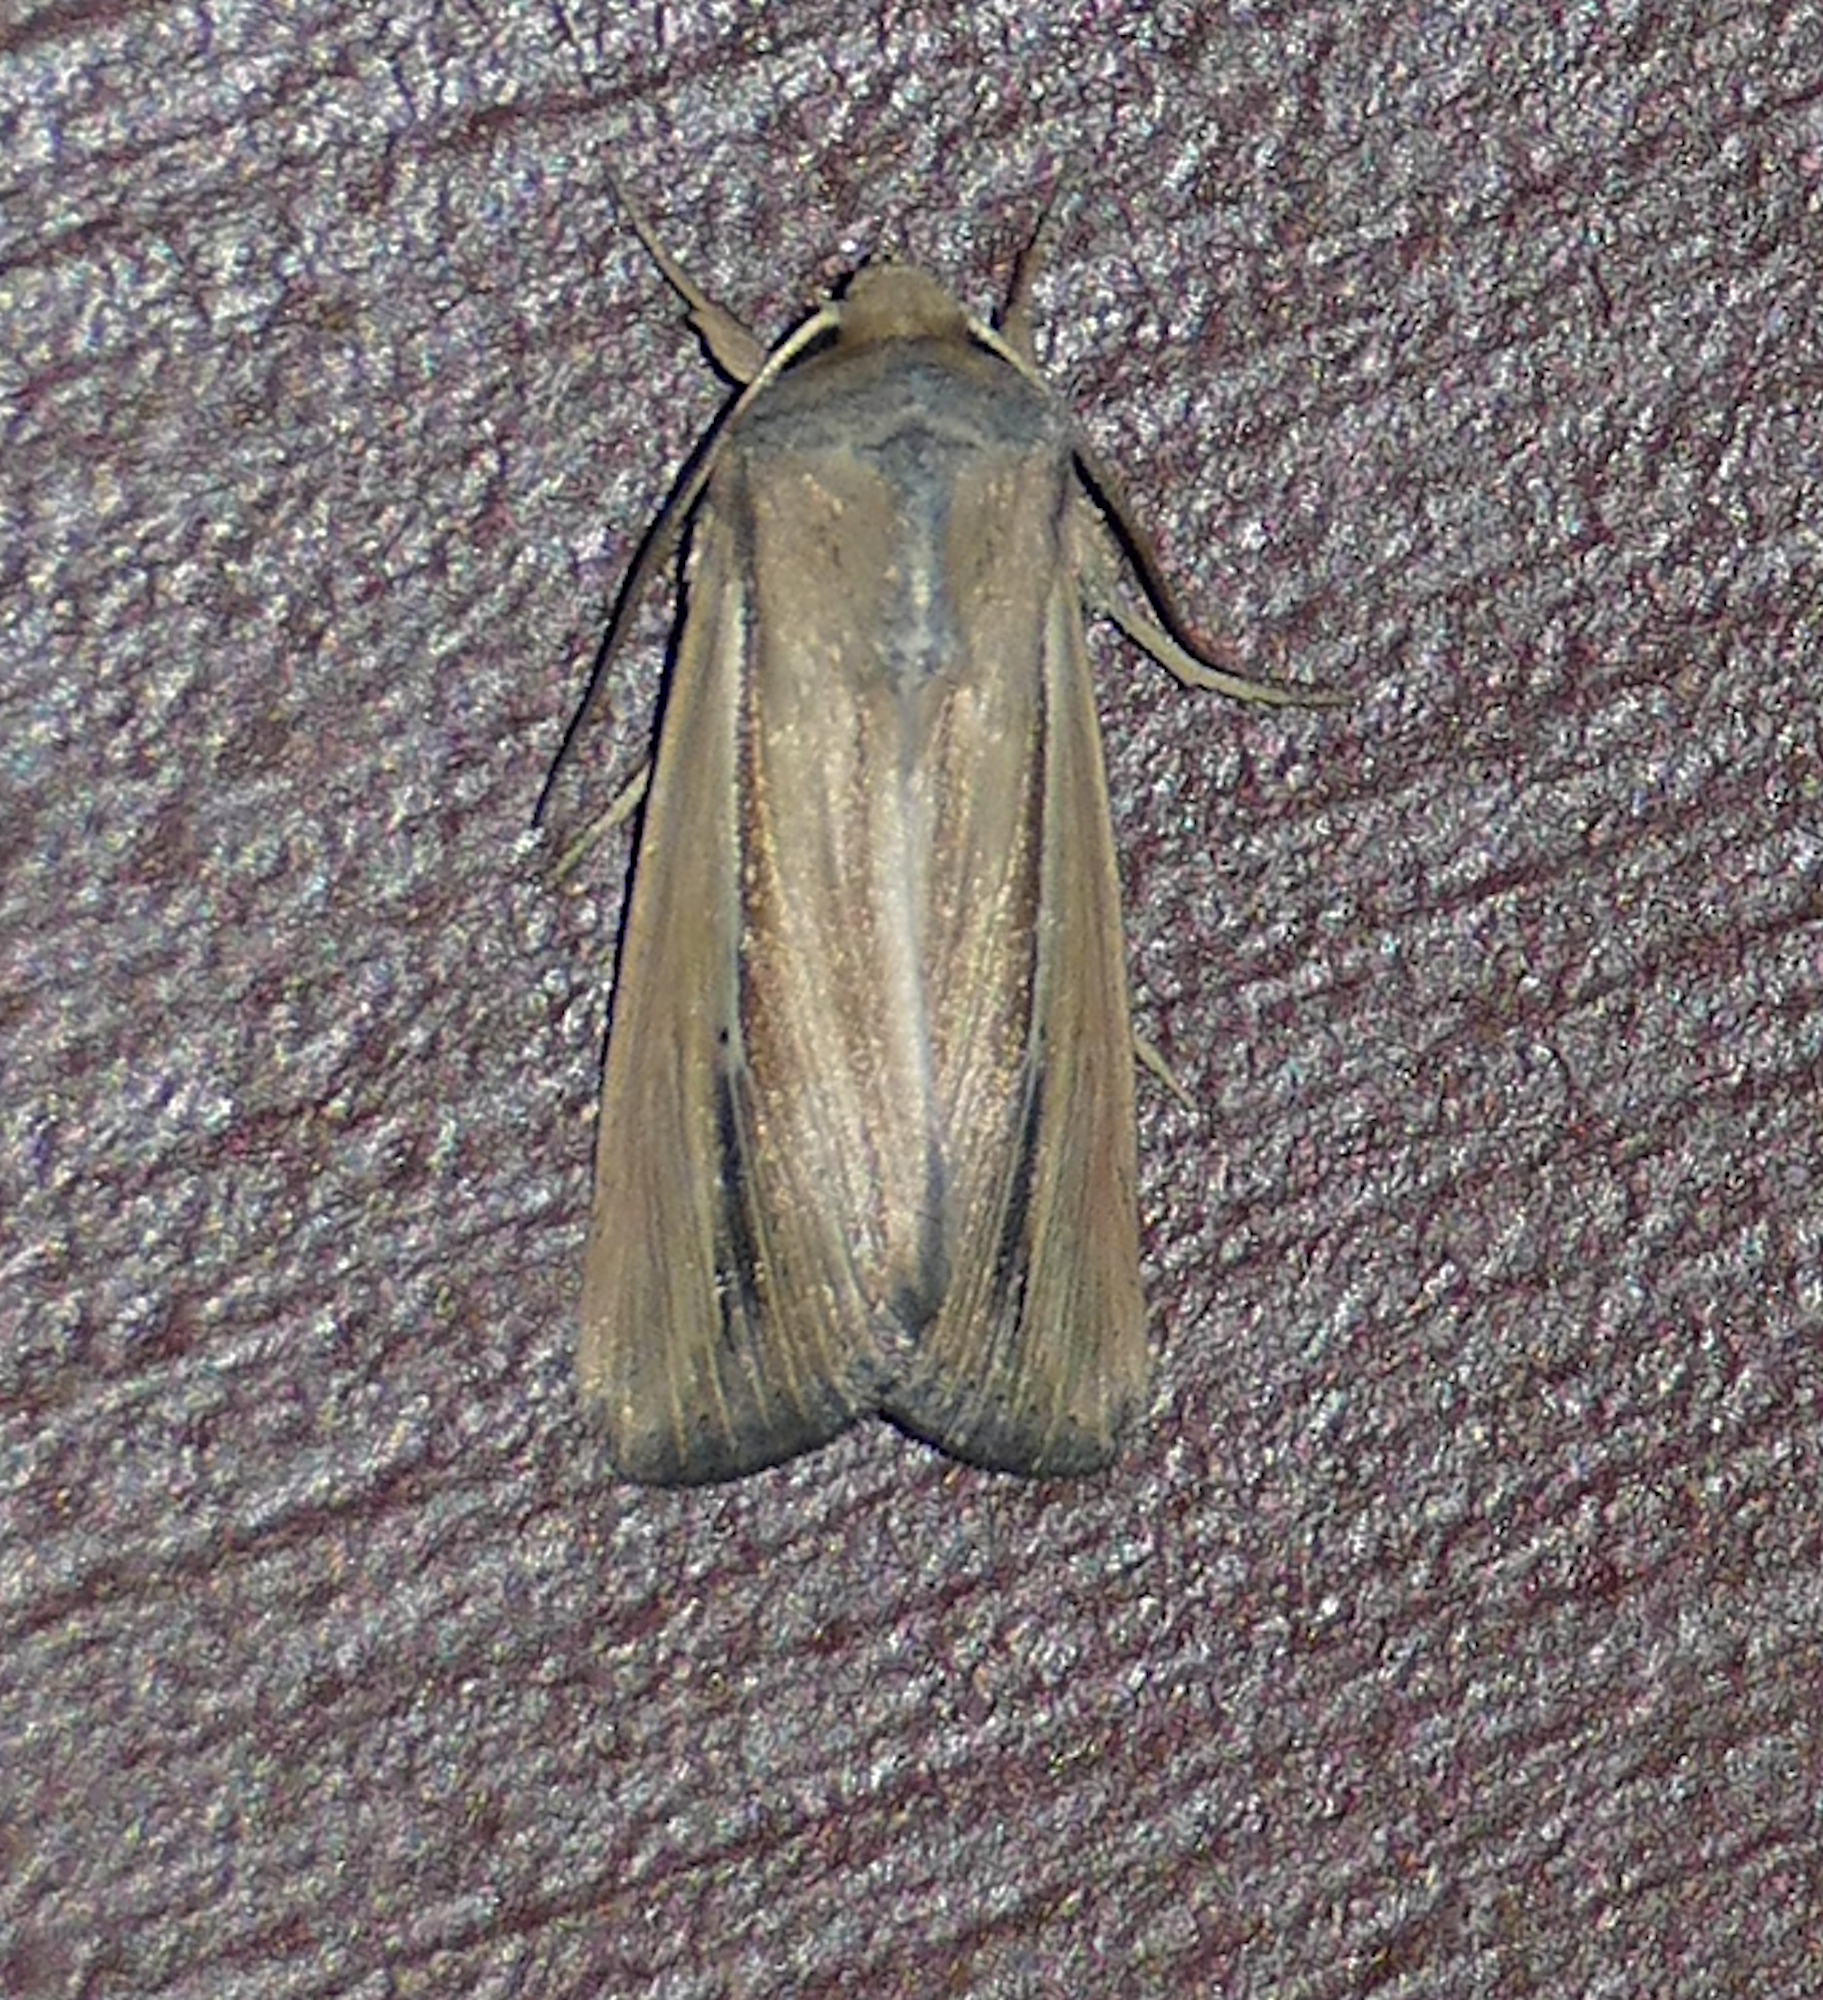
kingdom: Animalia
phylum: Arthropoda
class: Insecta
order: Lepidoptera
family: Noctuidae
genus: Leucania
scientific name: Leucania stolata
